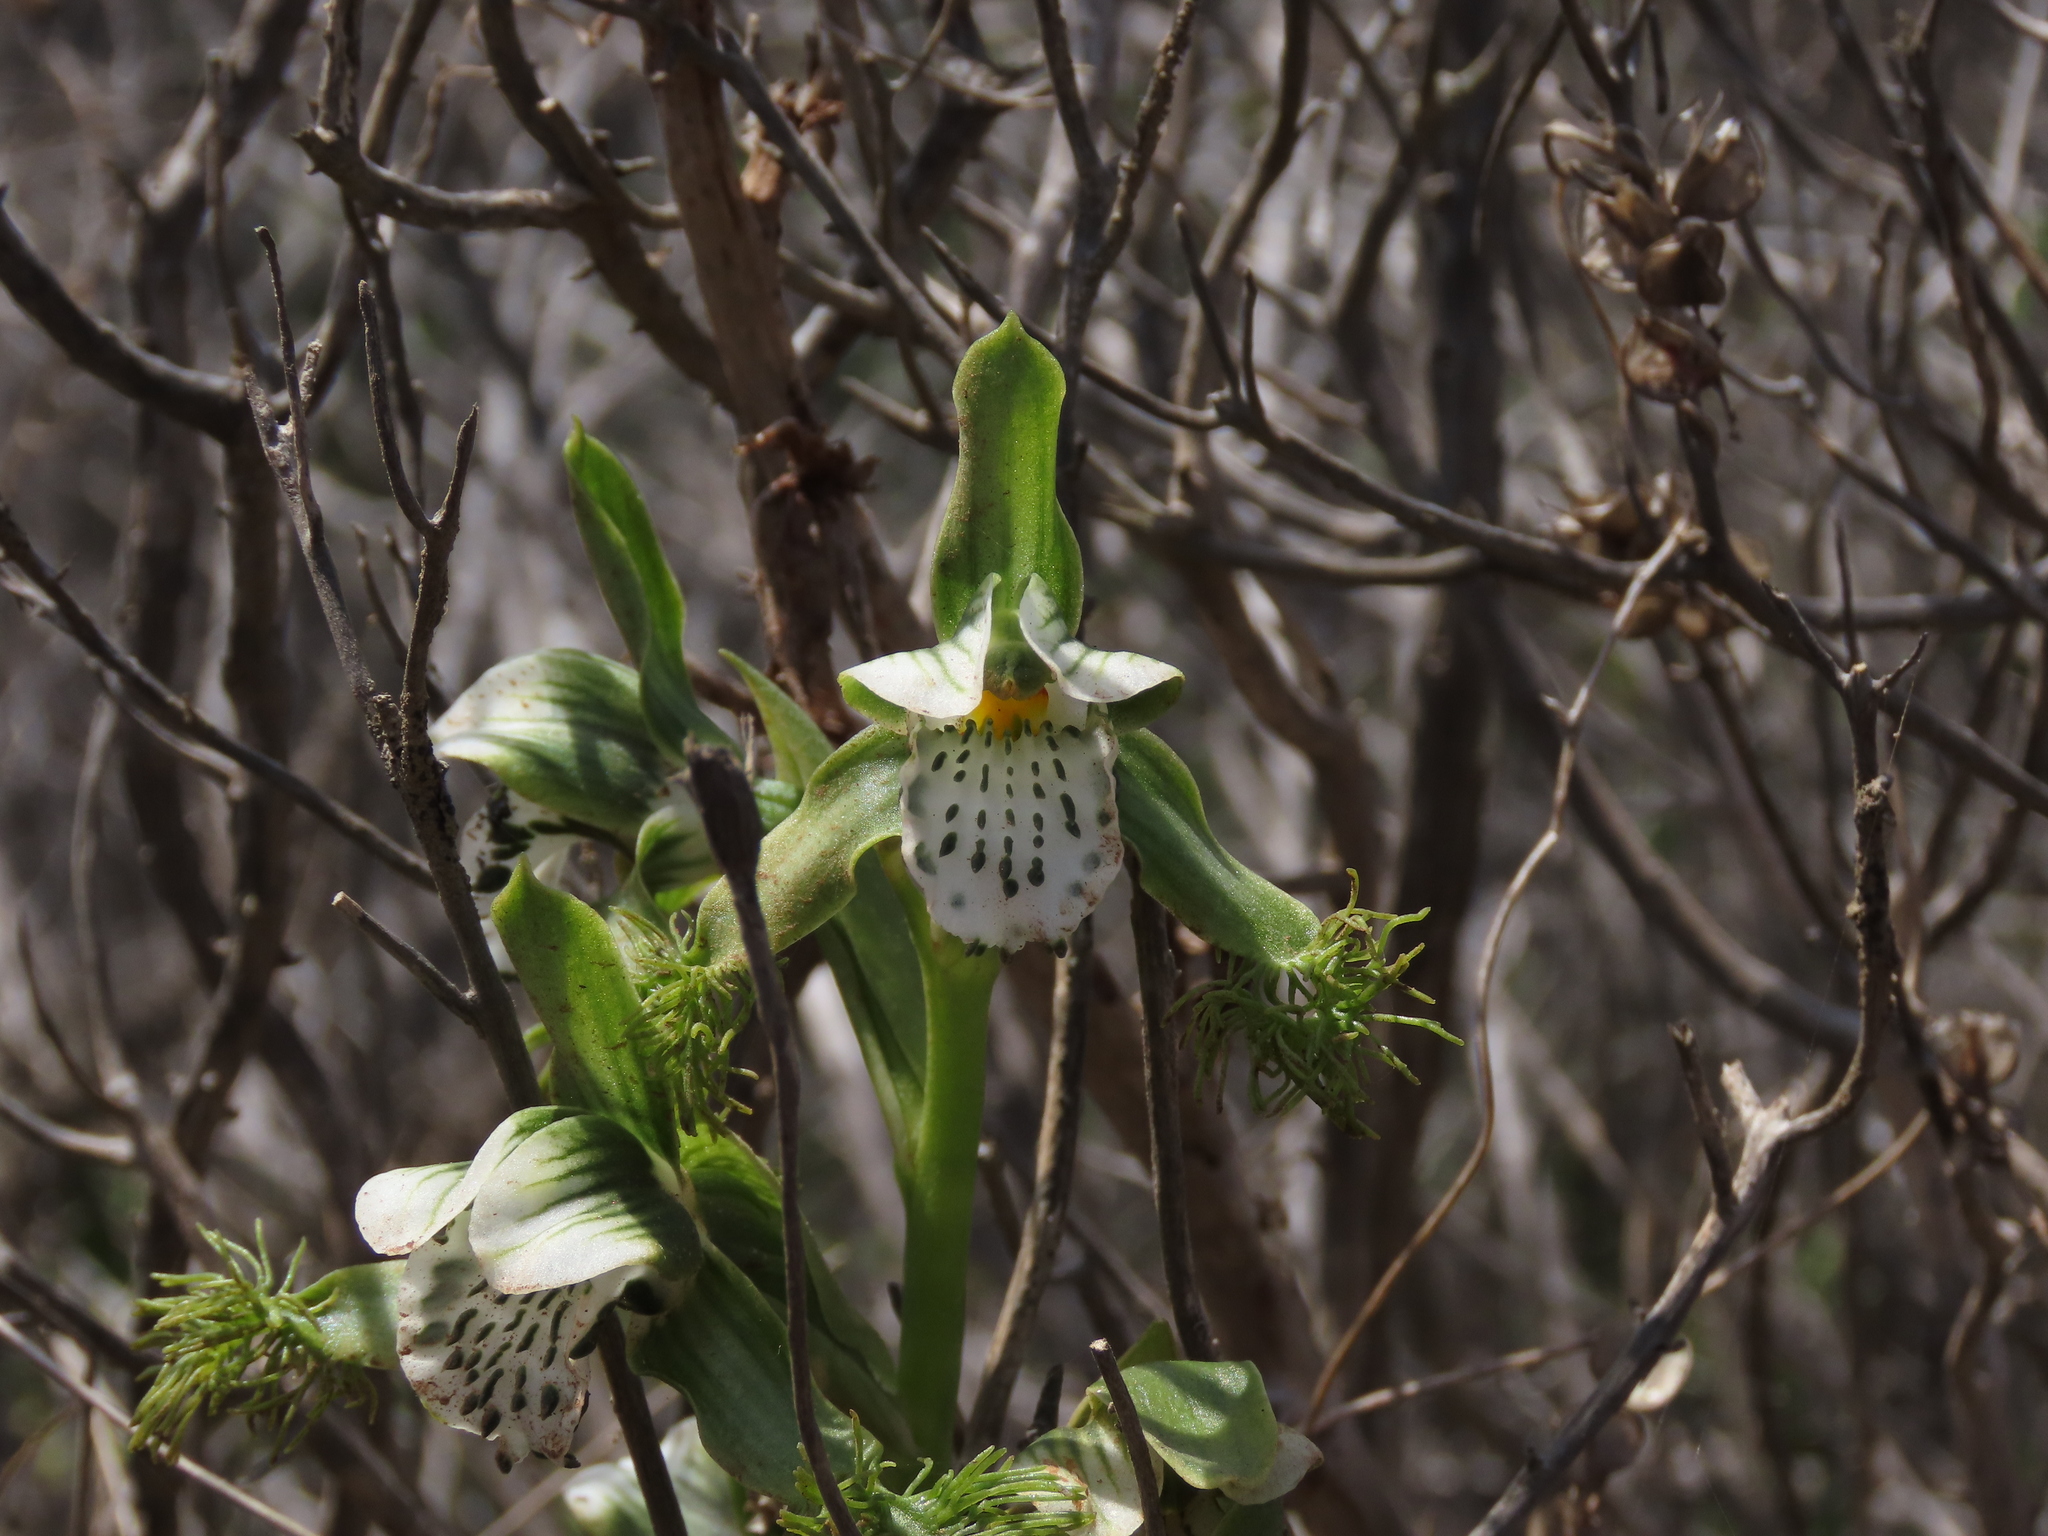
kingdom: Plantae
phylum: Tracheophyta
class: Liliopsida
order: Asparagales
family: Orchidaceae
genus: Bipinnula
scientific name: Bipinnula fimbriata
